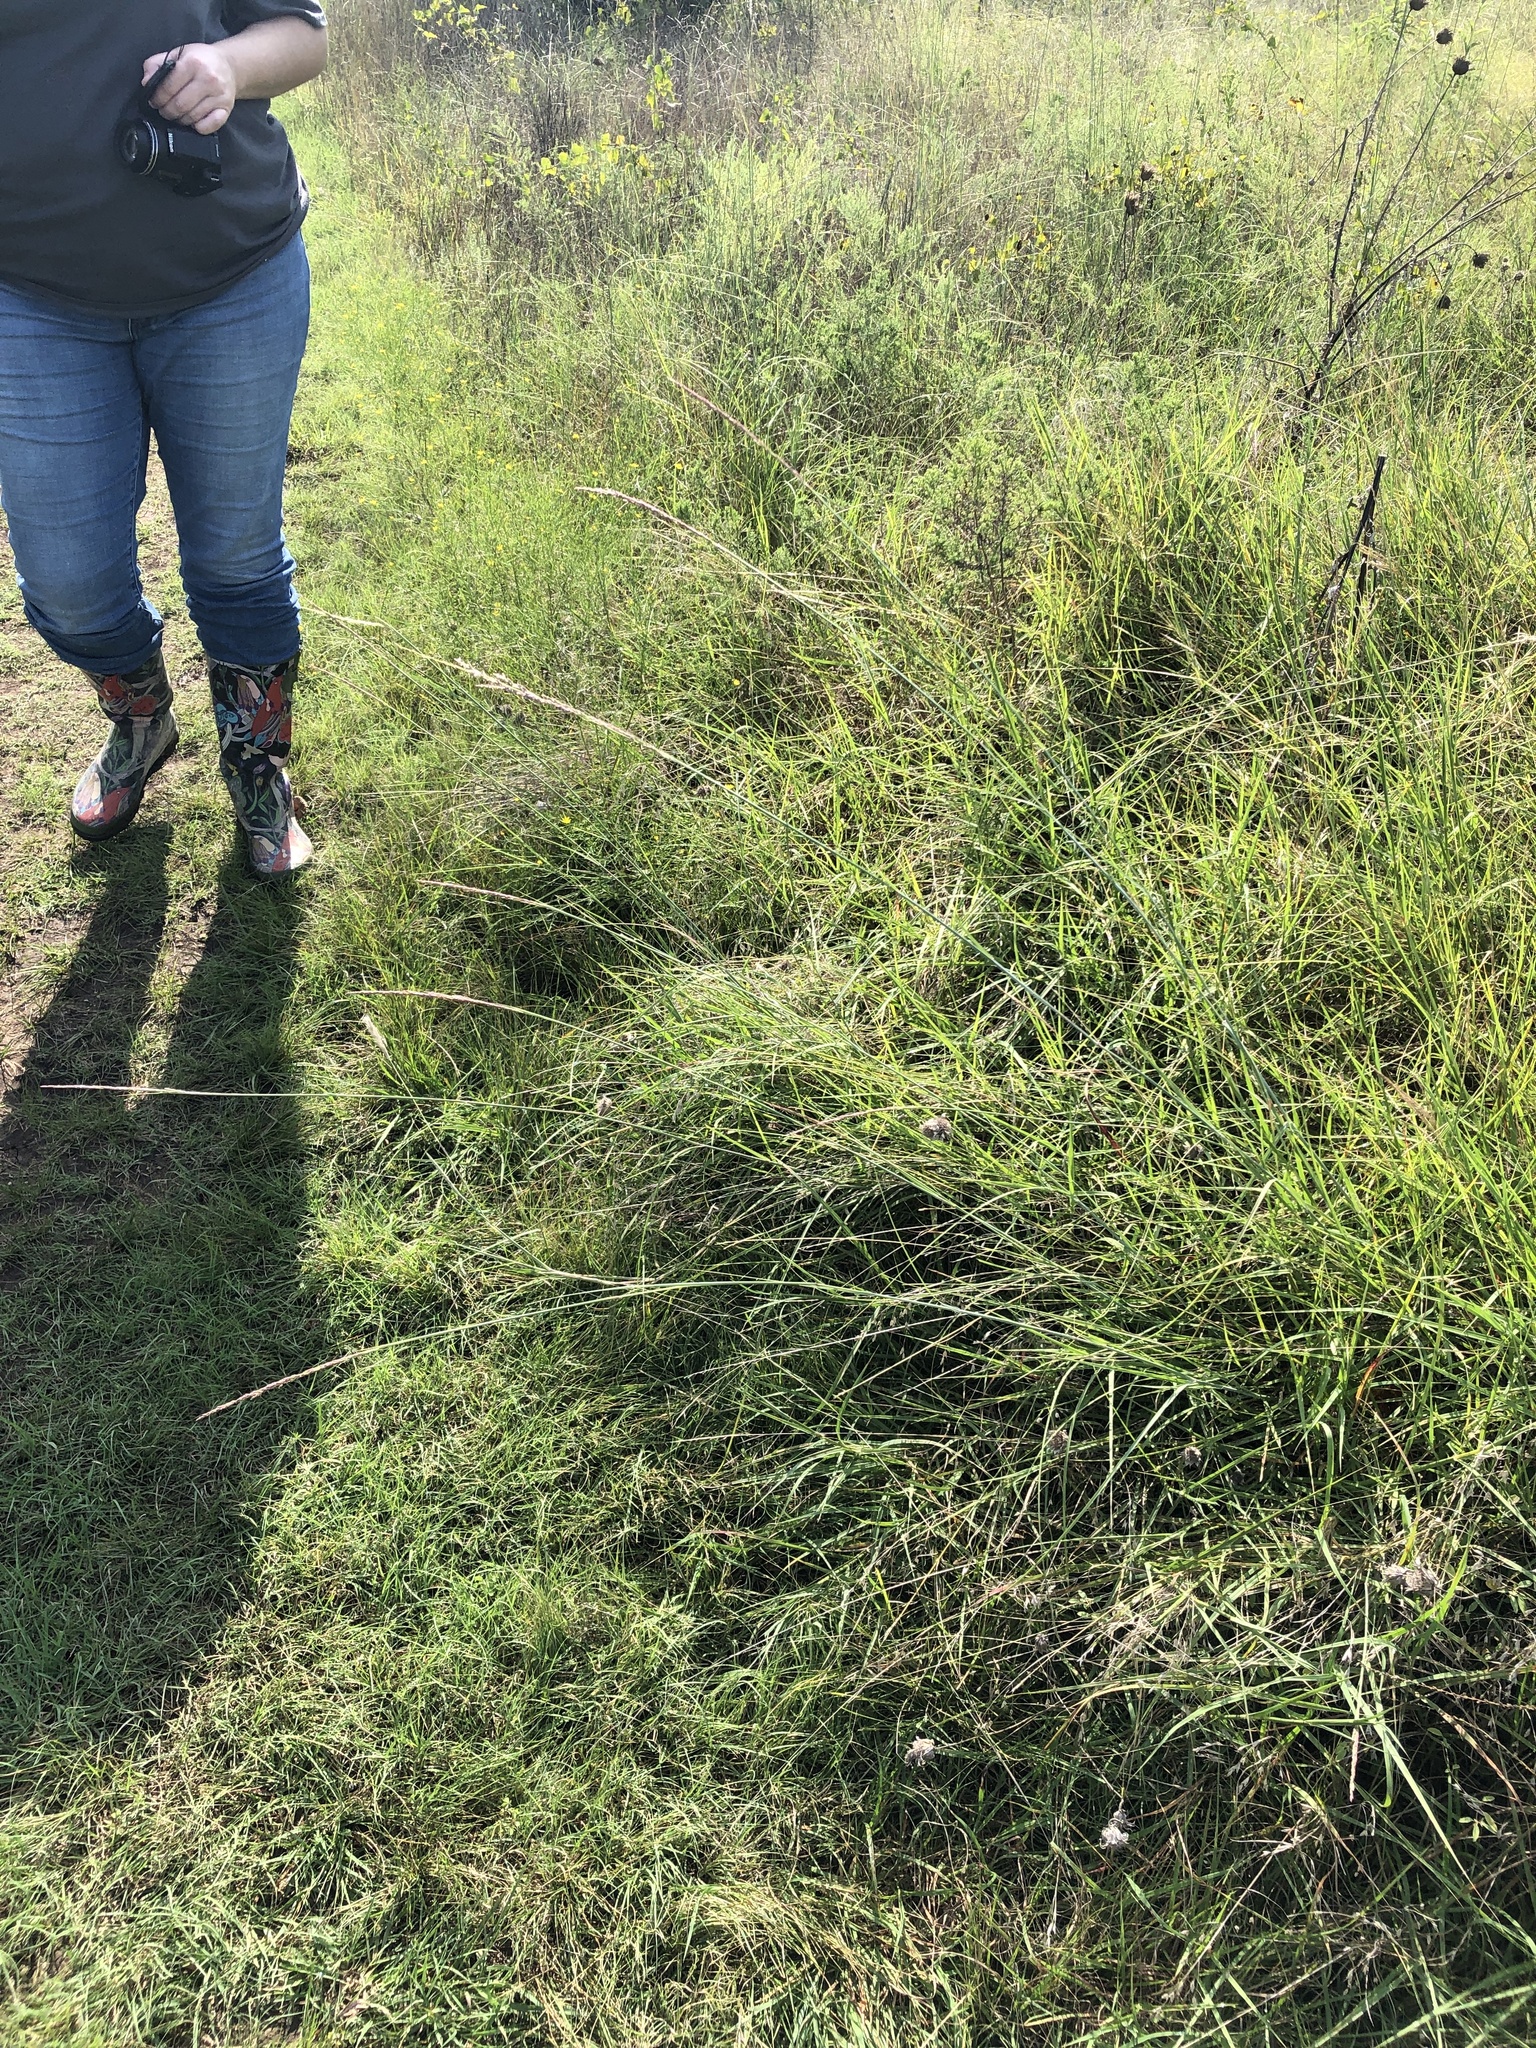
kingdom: Plantae
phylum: Tracheophyta
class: Liliopsida
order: Poales
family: Poaceae
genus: Sporobolus
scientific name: Sporobolus compositus
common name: Rough dropseed
